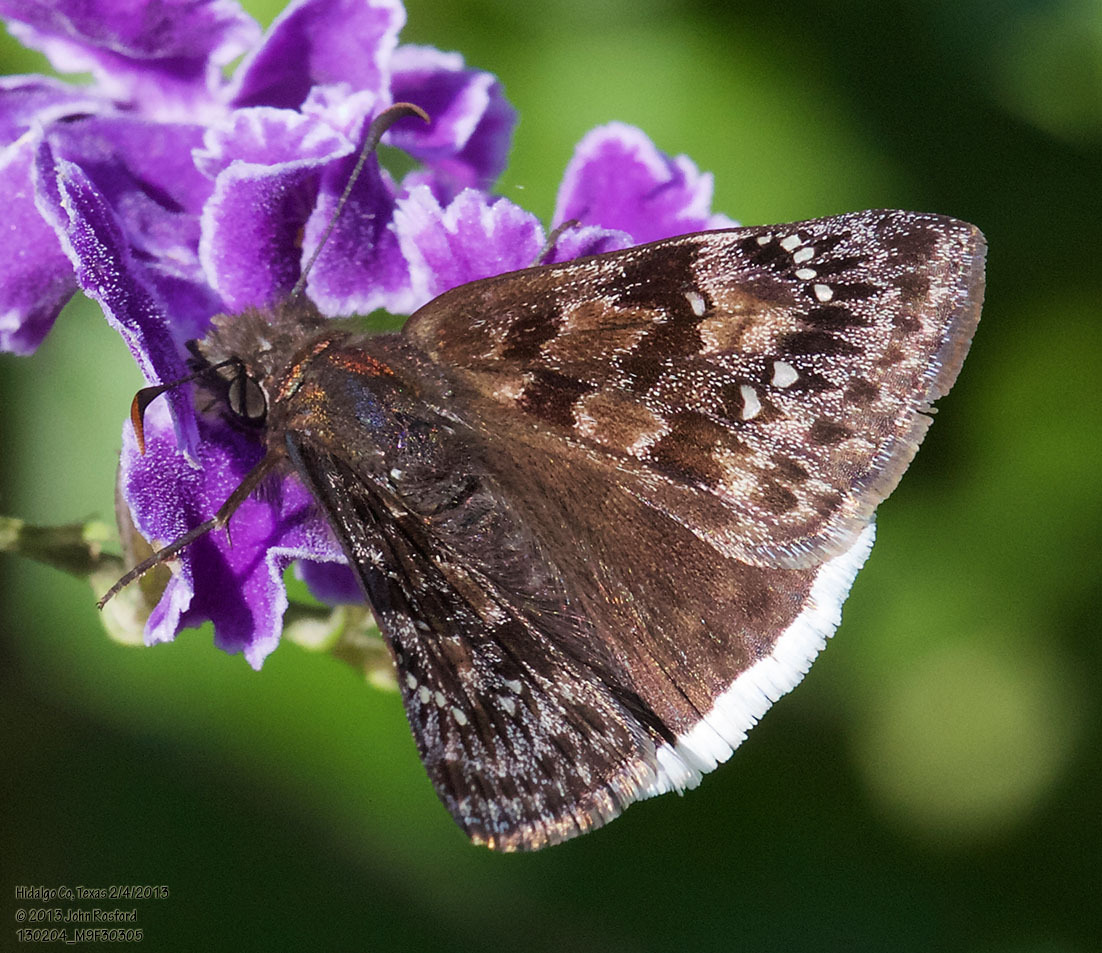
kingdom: Animalia
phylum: Arthropoda
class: Insecta
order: Lepidoptera
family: Hesperiidae
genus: Erynnis
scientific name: Erynnis tristis
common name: Mournful duskywing
